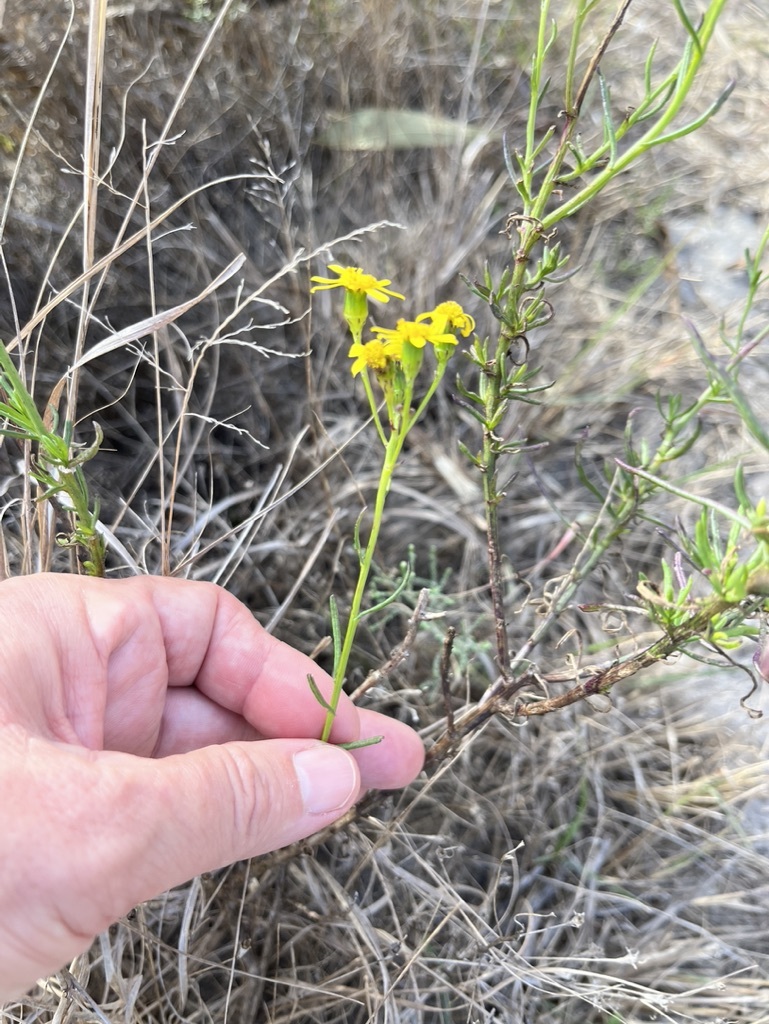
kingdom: Plantae
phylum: Tracheophyta
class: Magnoliopsida
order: Asterales
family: Asteraceae
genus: Senecio
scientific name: Senecio burchellii
